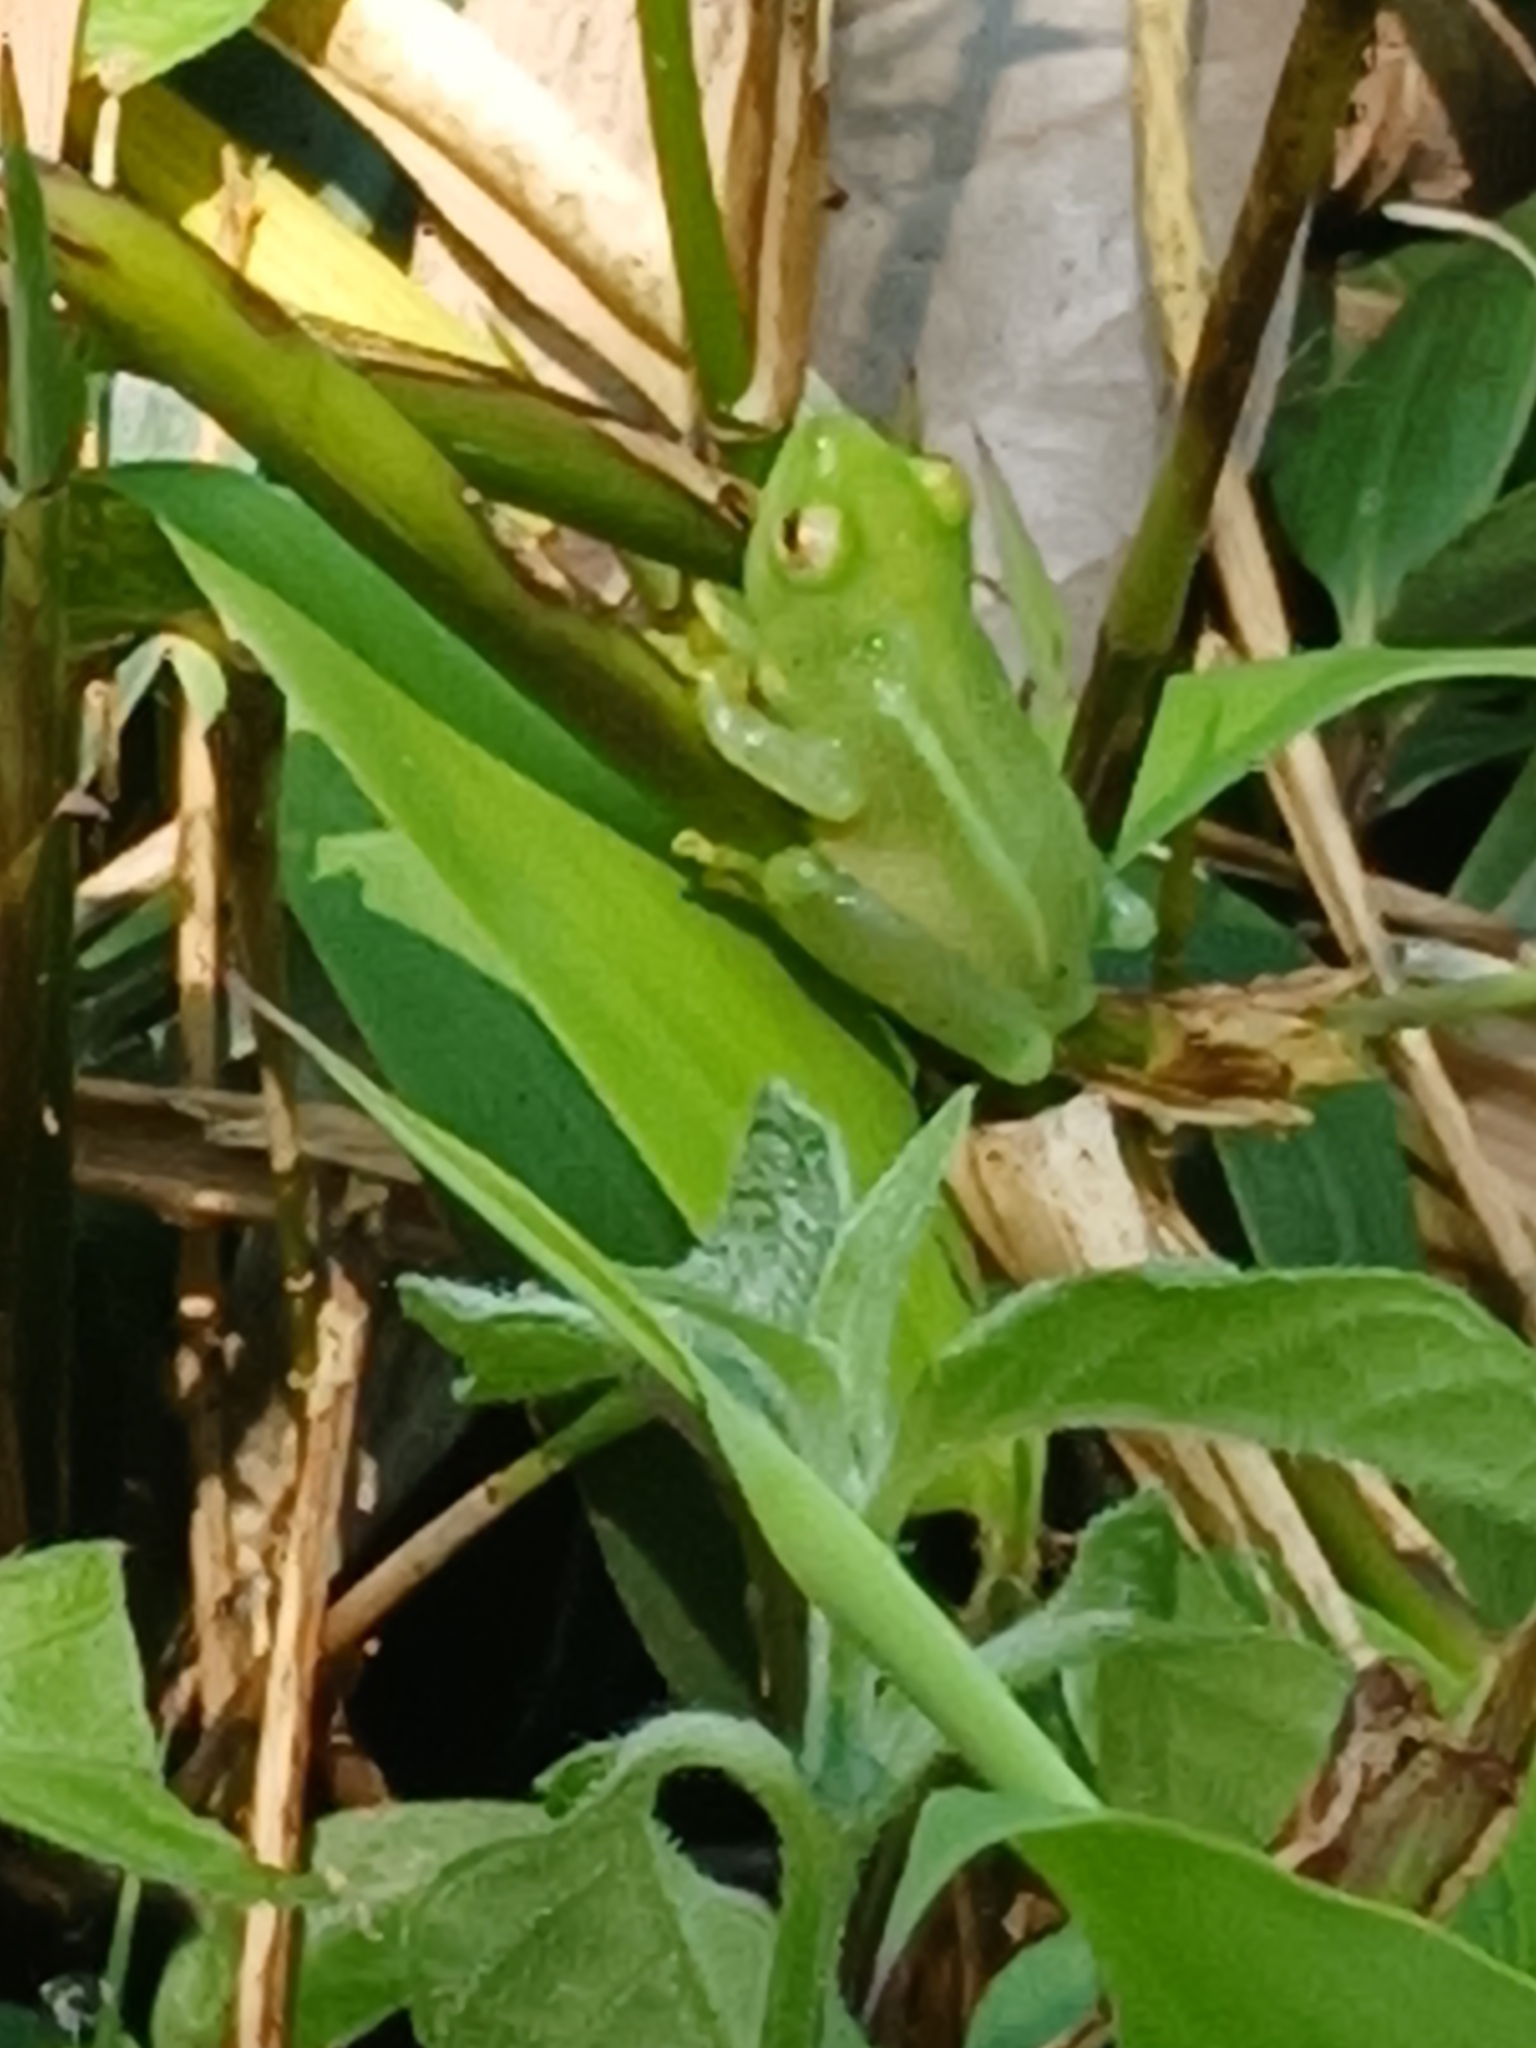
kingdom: Animalia
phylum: Chordata
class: Amphibia
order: Anura
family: Hyperoliidae
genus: Hyperolius
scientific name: Hyperolius pusillus
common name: Water lily reed frog
